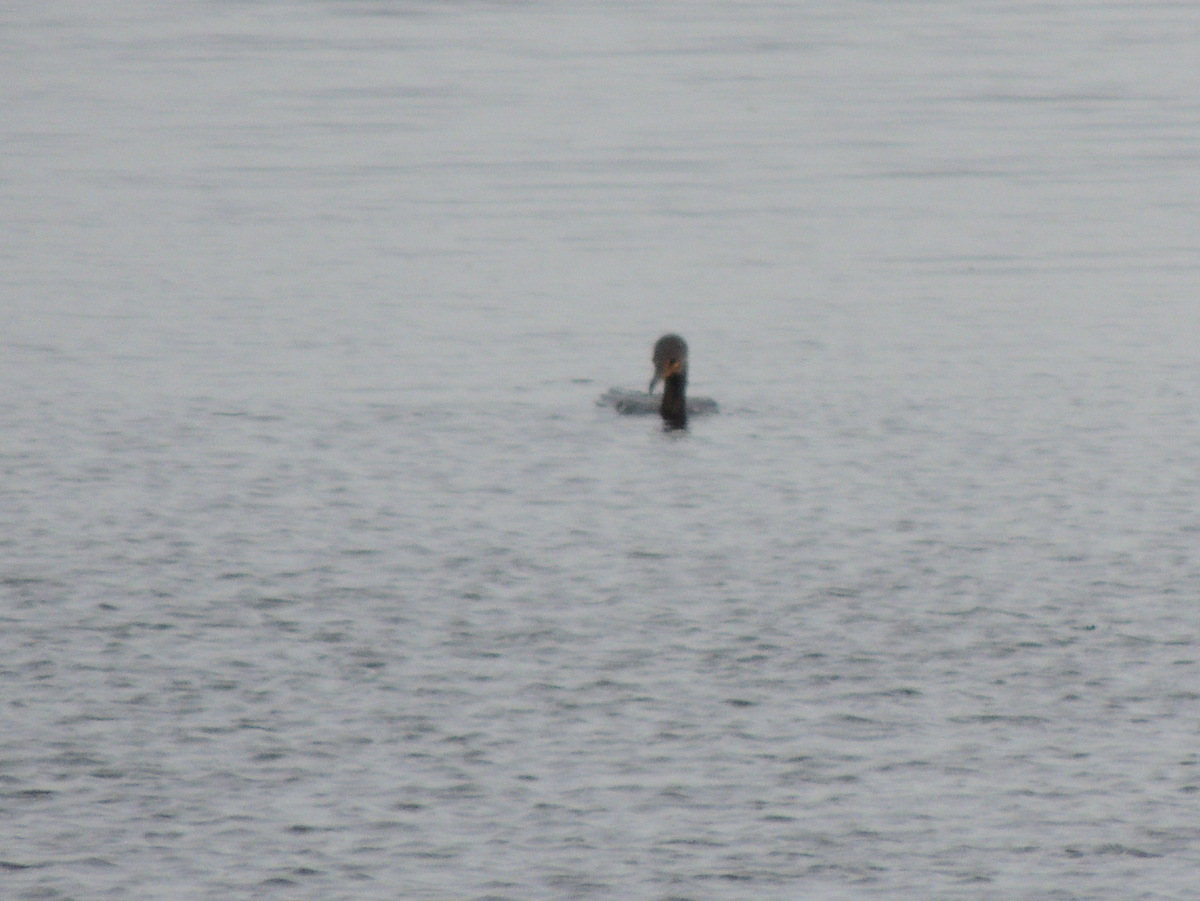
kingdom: Animalia
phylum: Chordata
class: Aves
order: Suliformes
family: Phalacrocoracidae
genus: Phalacrocorax
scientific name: Phalacrocorax auritus
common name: Double-crested cormorant
